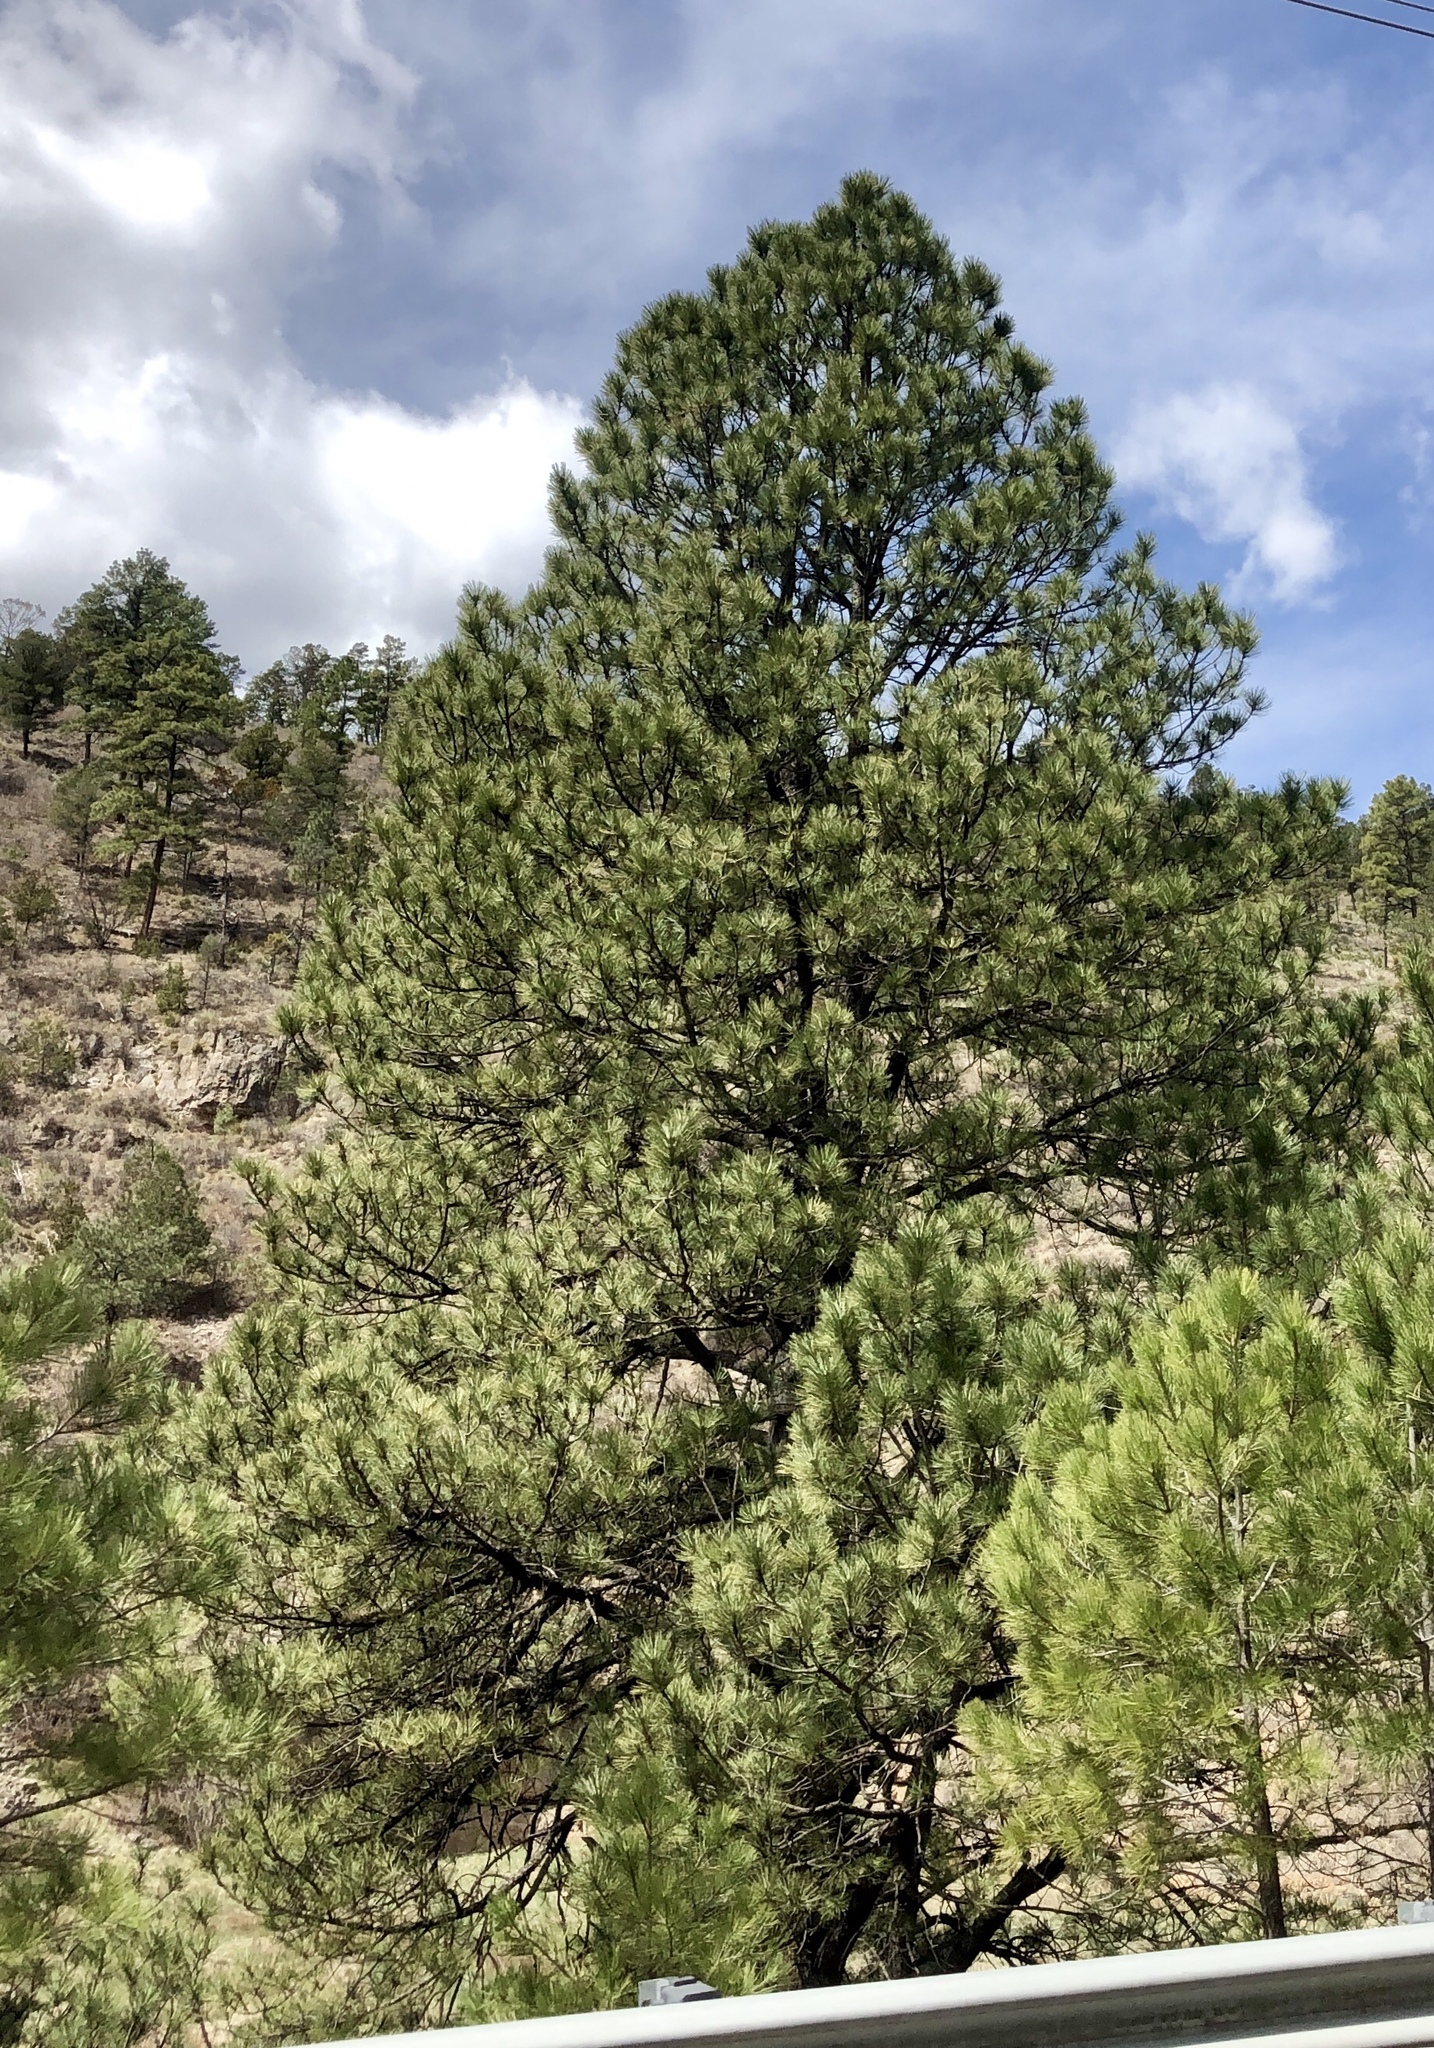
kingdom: Plantae
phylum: Tracheophyta
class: Pinopsida
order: Pinales
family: Pinaceae
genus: Pinus
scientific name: Pinus ponderosa
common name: Western yellow-pine
